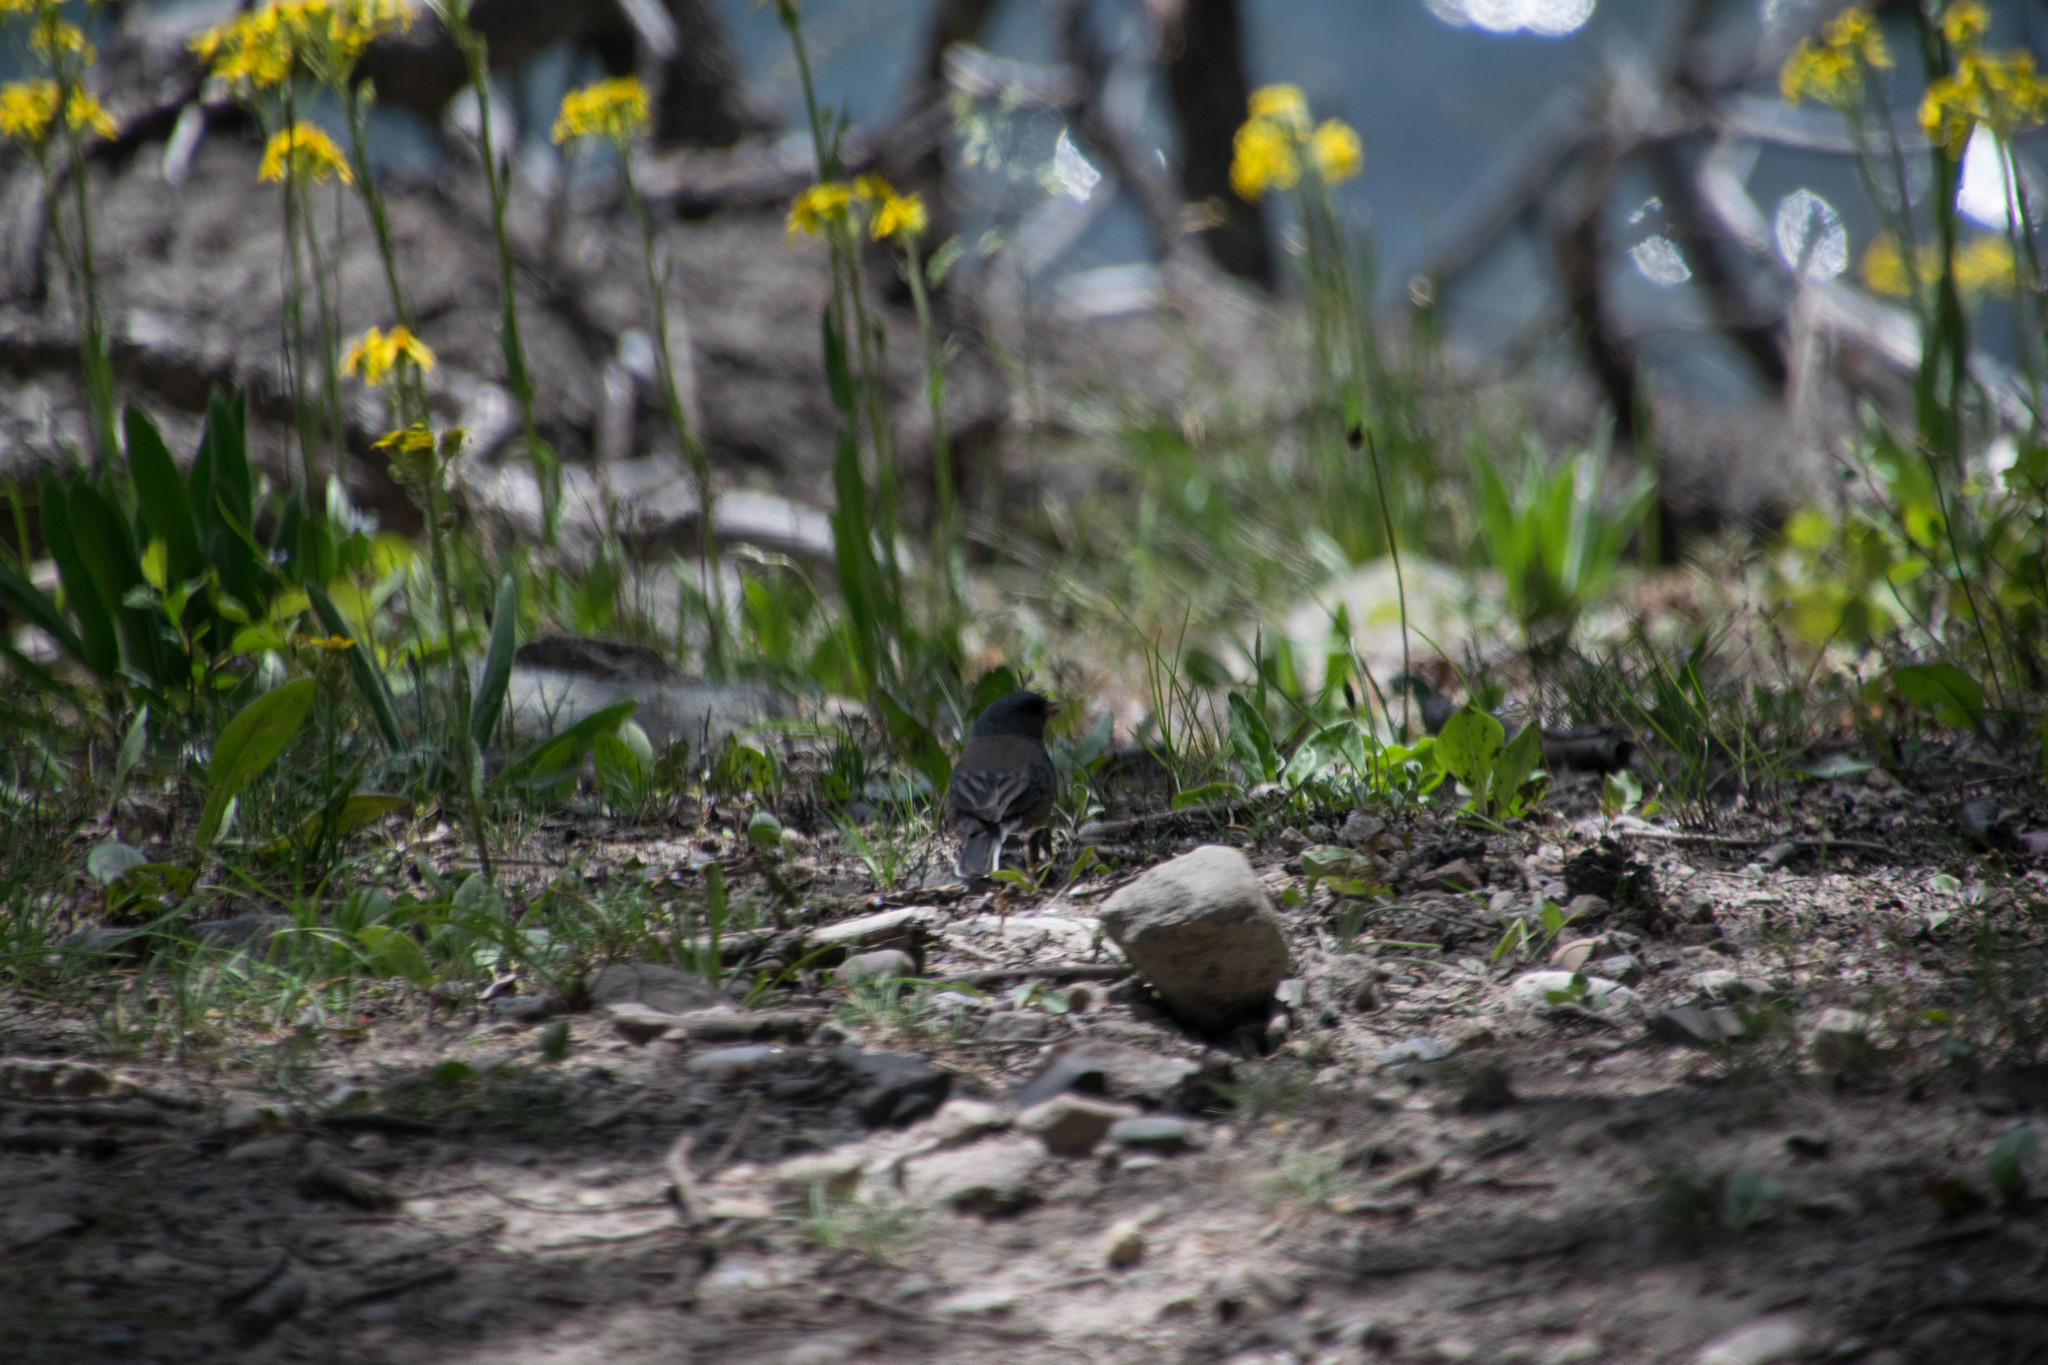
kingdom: Animalia
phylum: Chordata
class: Aves
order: Passeriformes
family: Passerellidae
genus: Junco
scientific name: Junco hyemalis
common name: Dark-eyed junco
